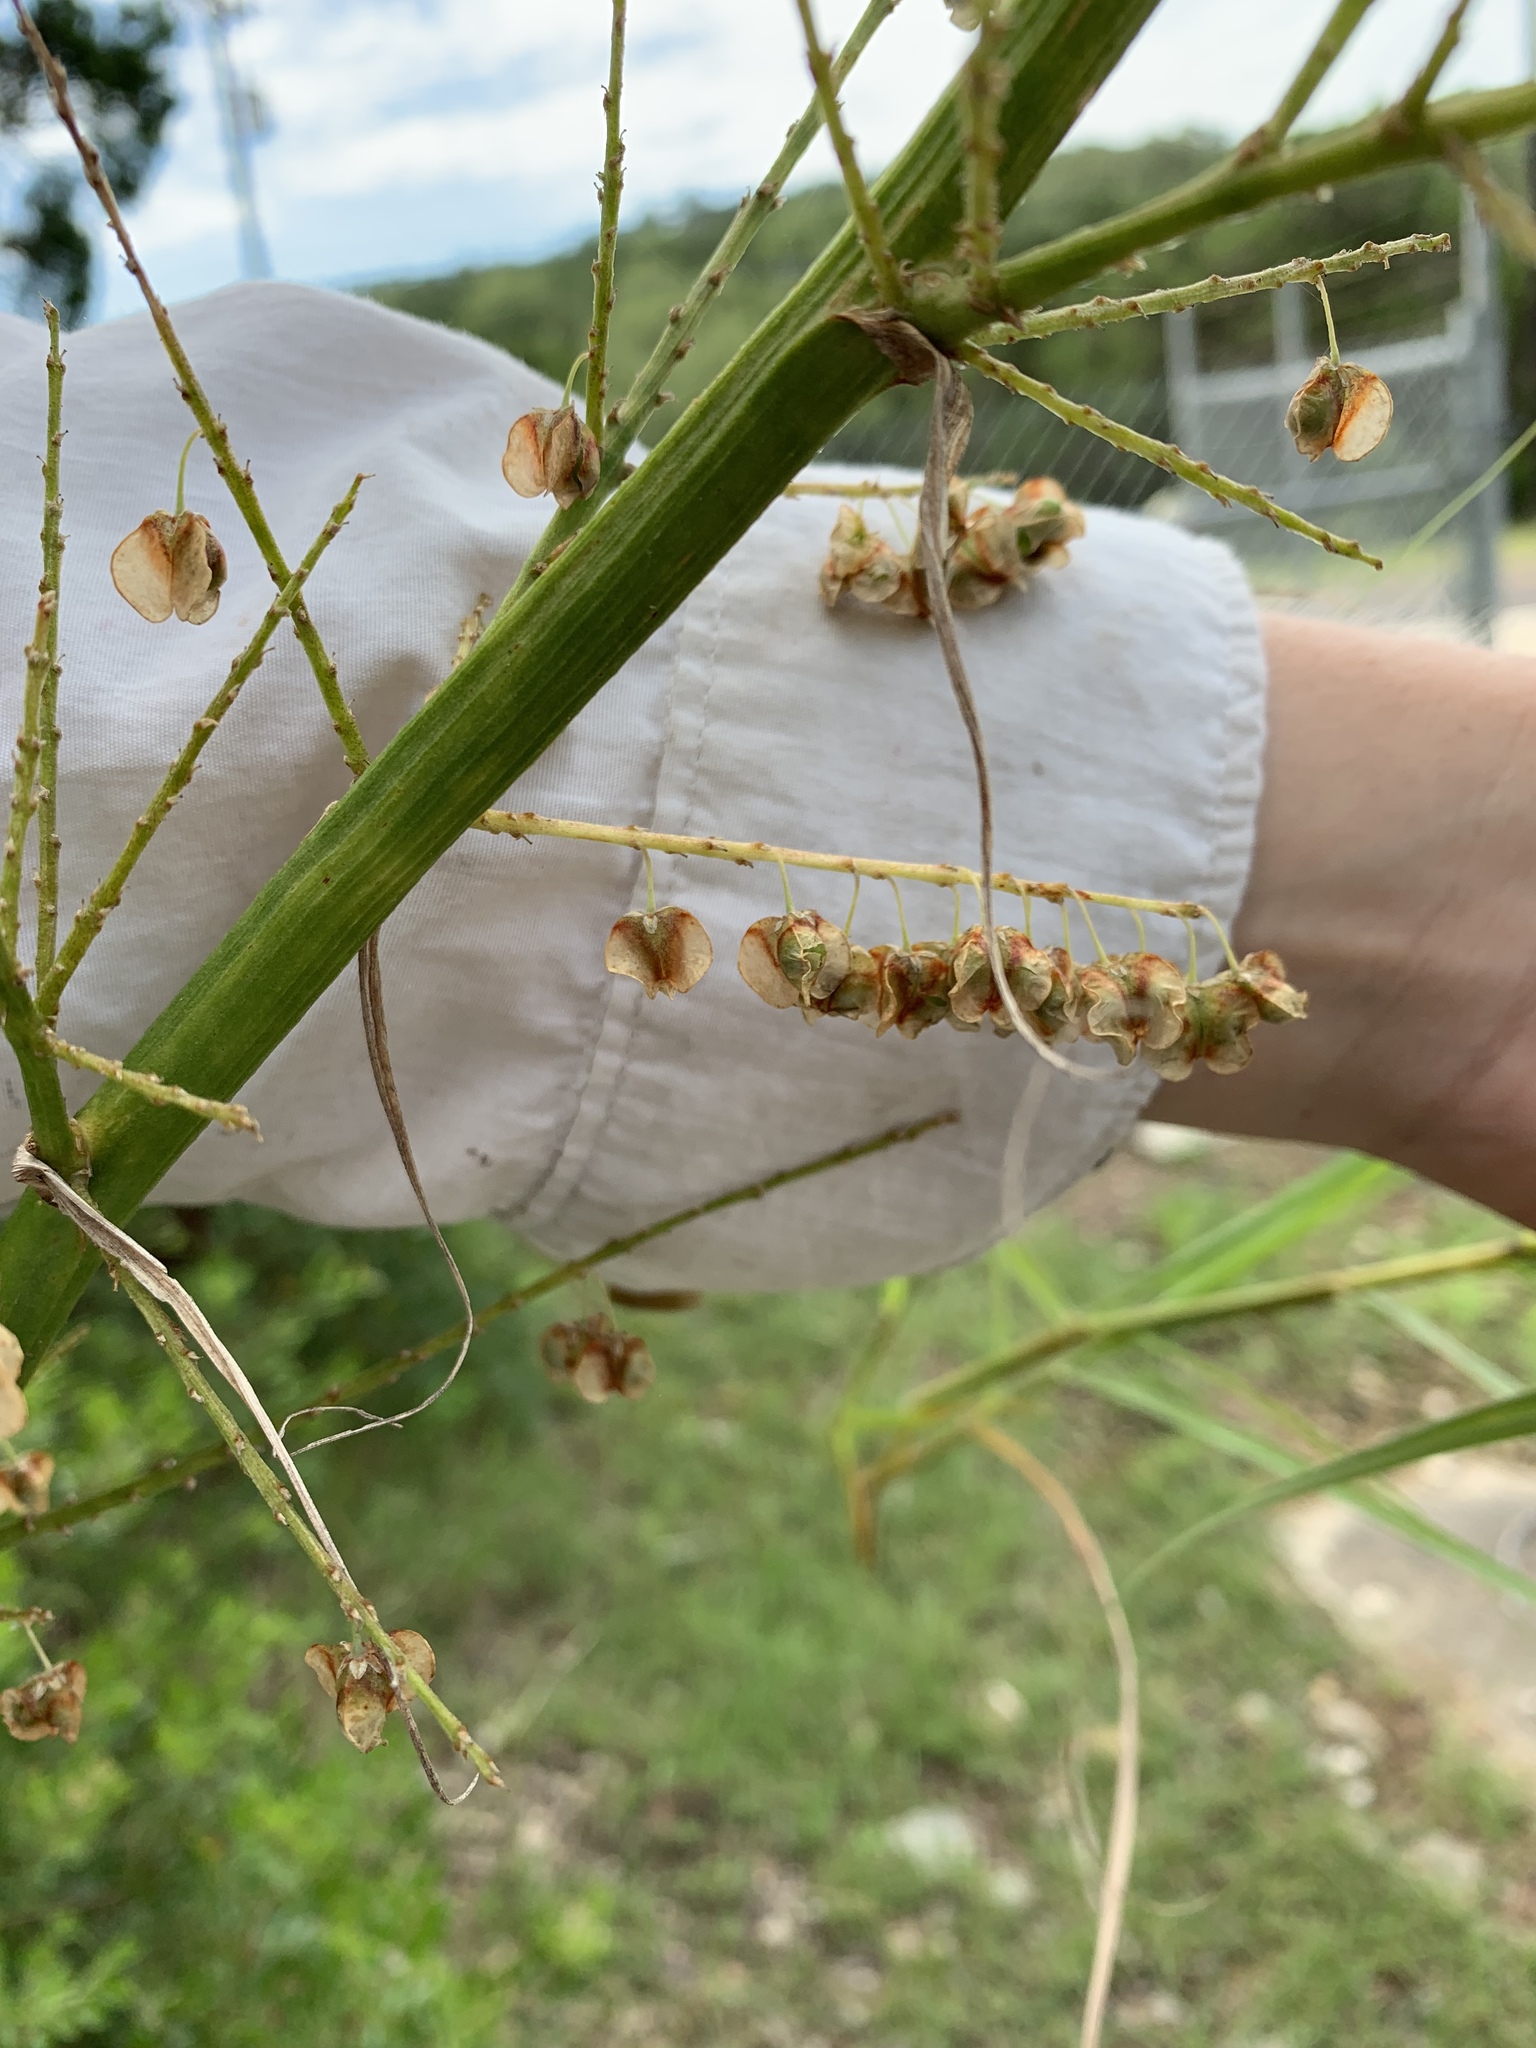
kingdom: Plantae
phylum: Tracheophyta
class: Liliopsida
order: Asparagales
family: Asparagaceae
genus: Nolina
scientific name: Nolina lindheimeriana
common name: Lindheimer's bear-grass
